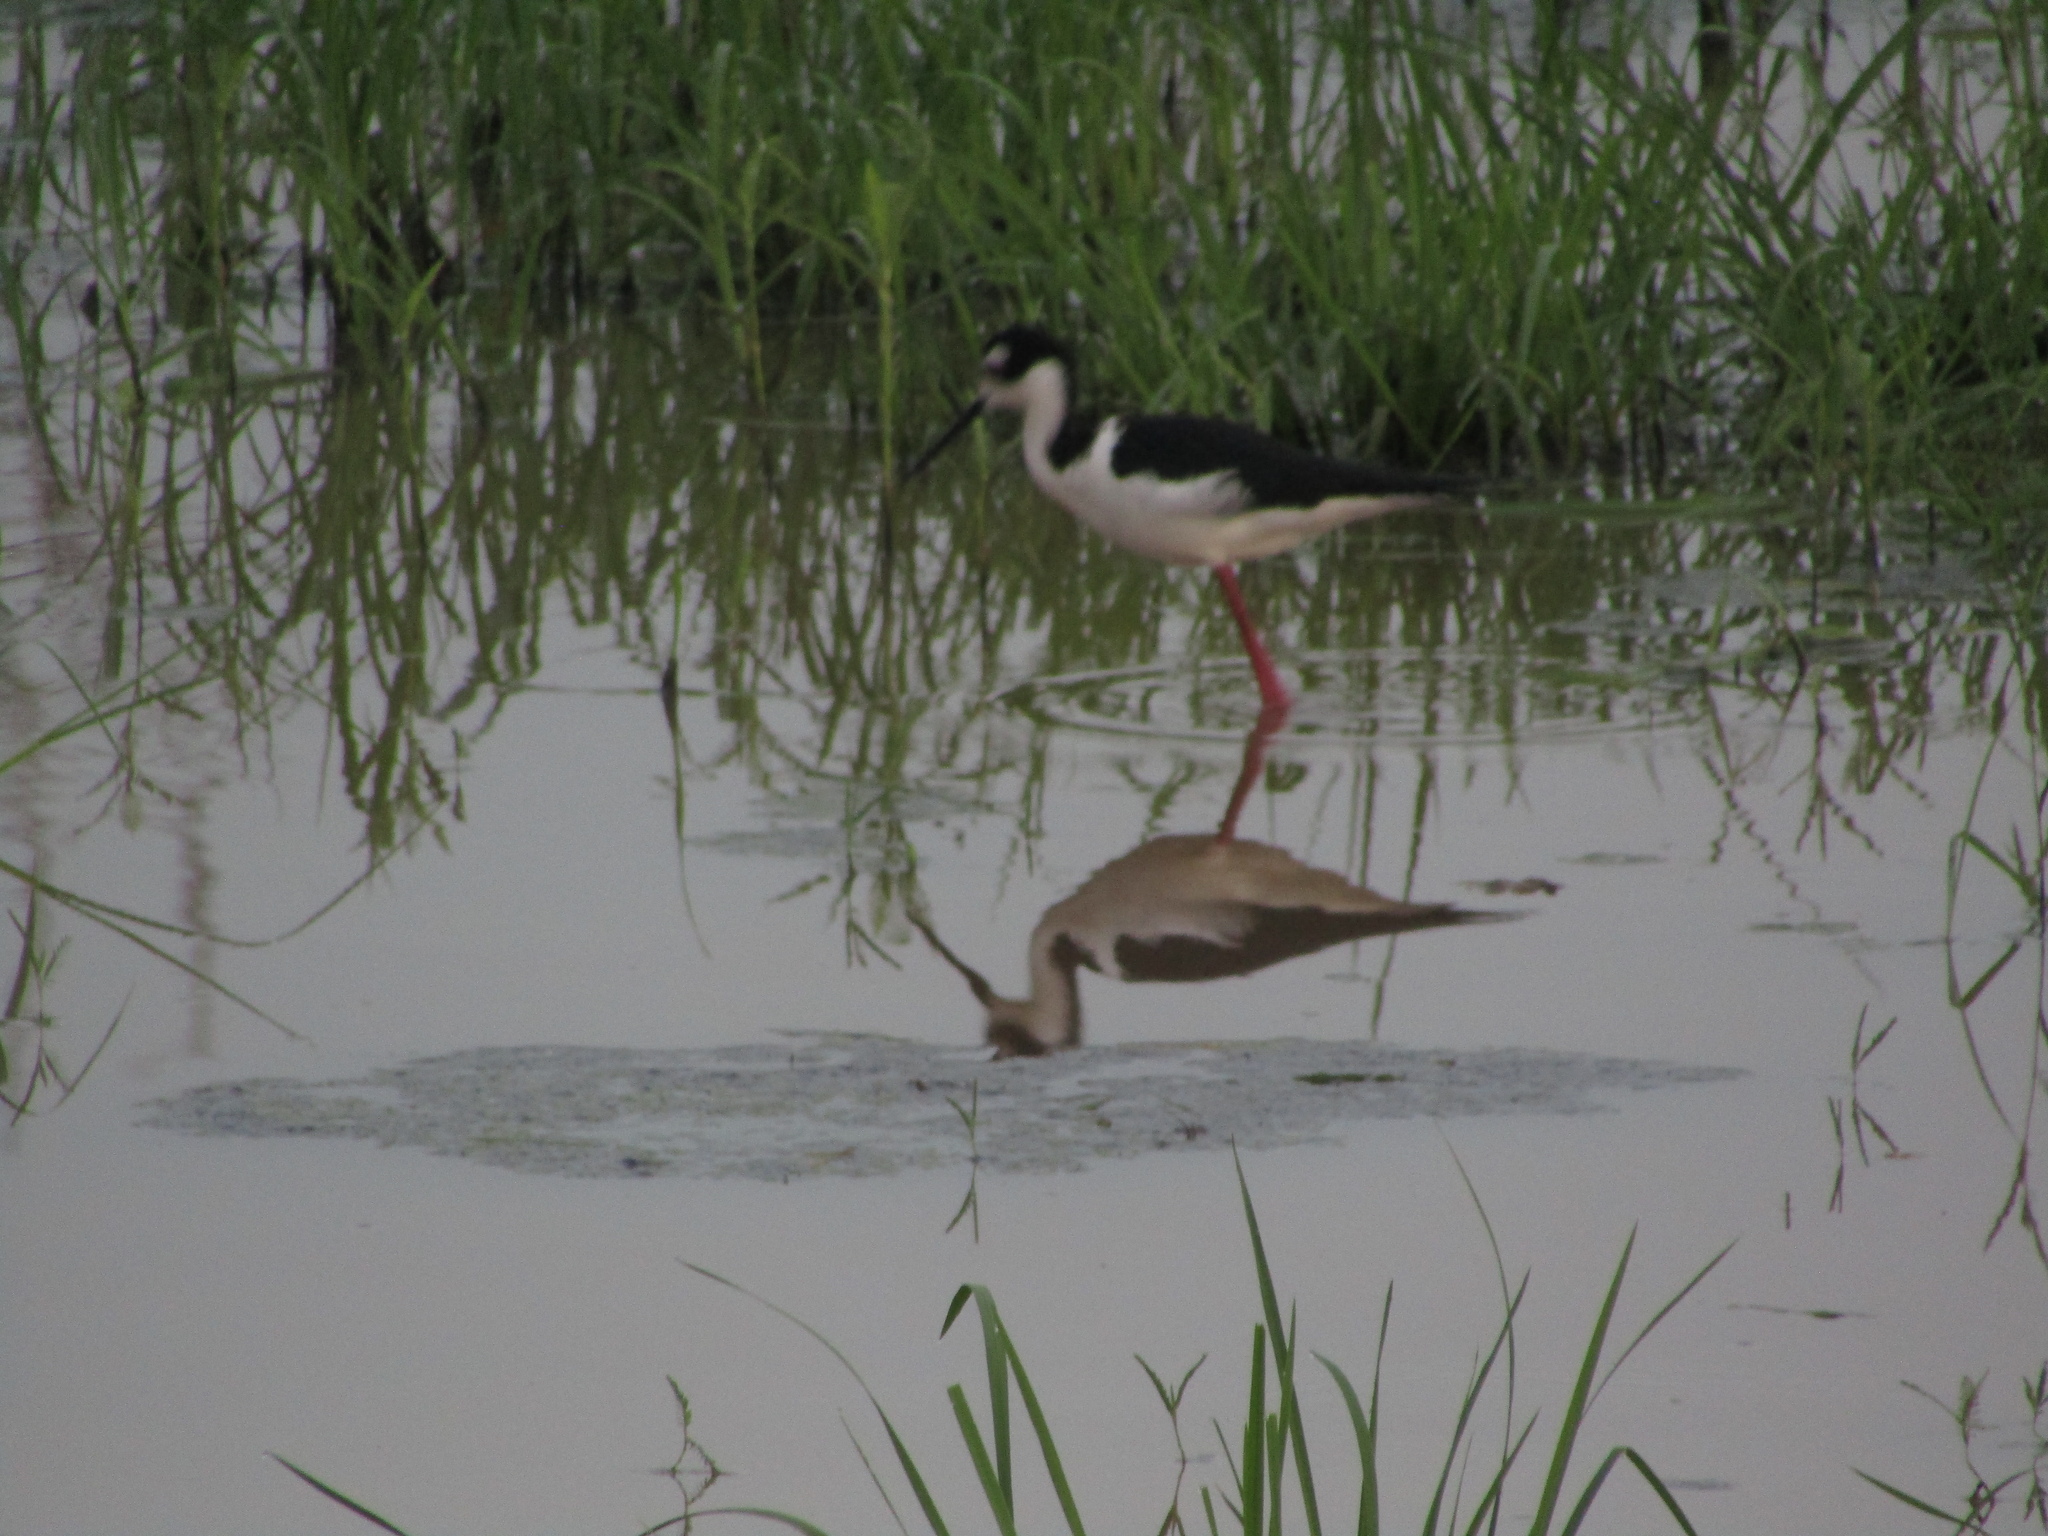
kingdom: Animalia
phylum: Chordata
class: Aves
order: Charadriiformes
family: Recurvirostridae
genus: Himantopus
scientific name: Himantopus mexicanus
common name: Black-necked stilt
